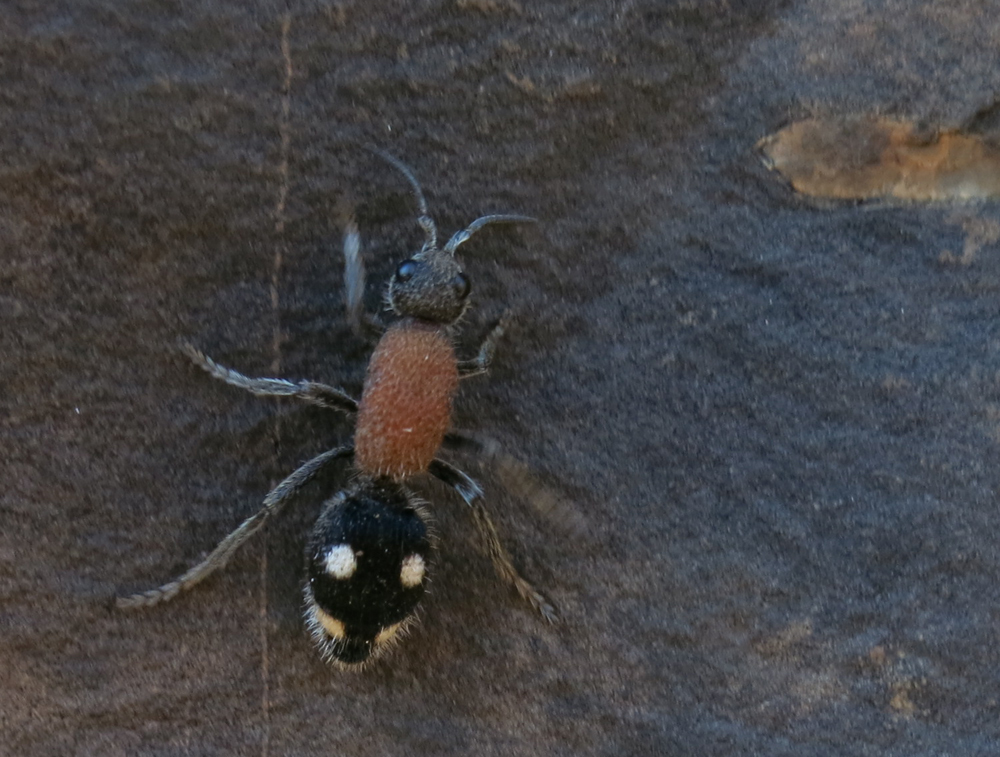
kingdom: Animalia
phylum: Arthropoda
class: Insecta
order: Hymenoptera
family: Mutillidae
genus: Dolichomutilla
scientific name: Dolichomutilla
